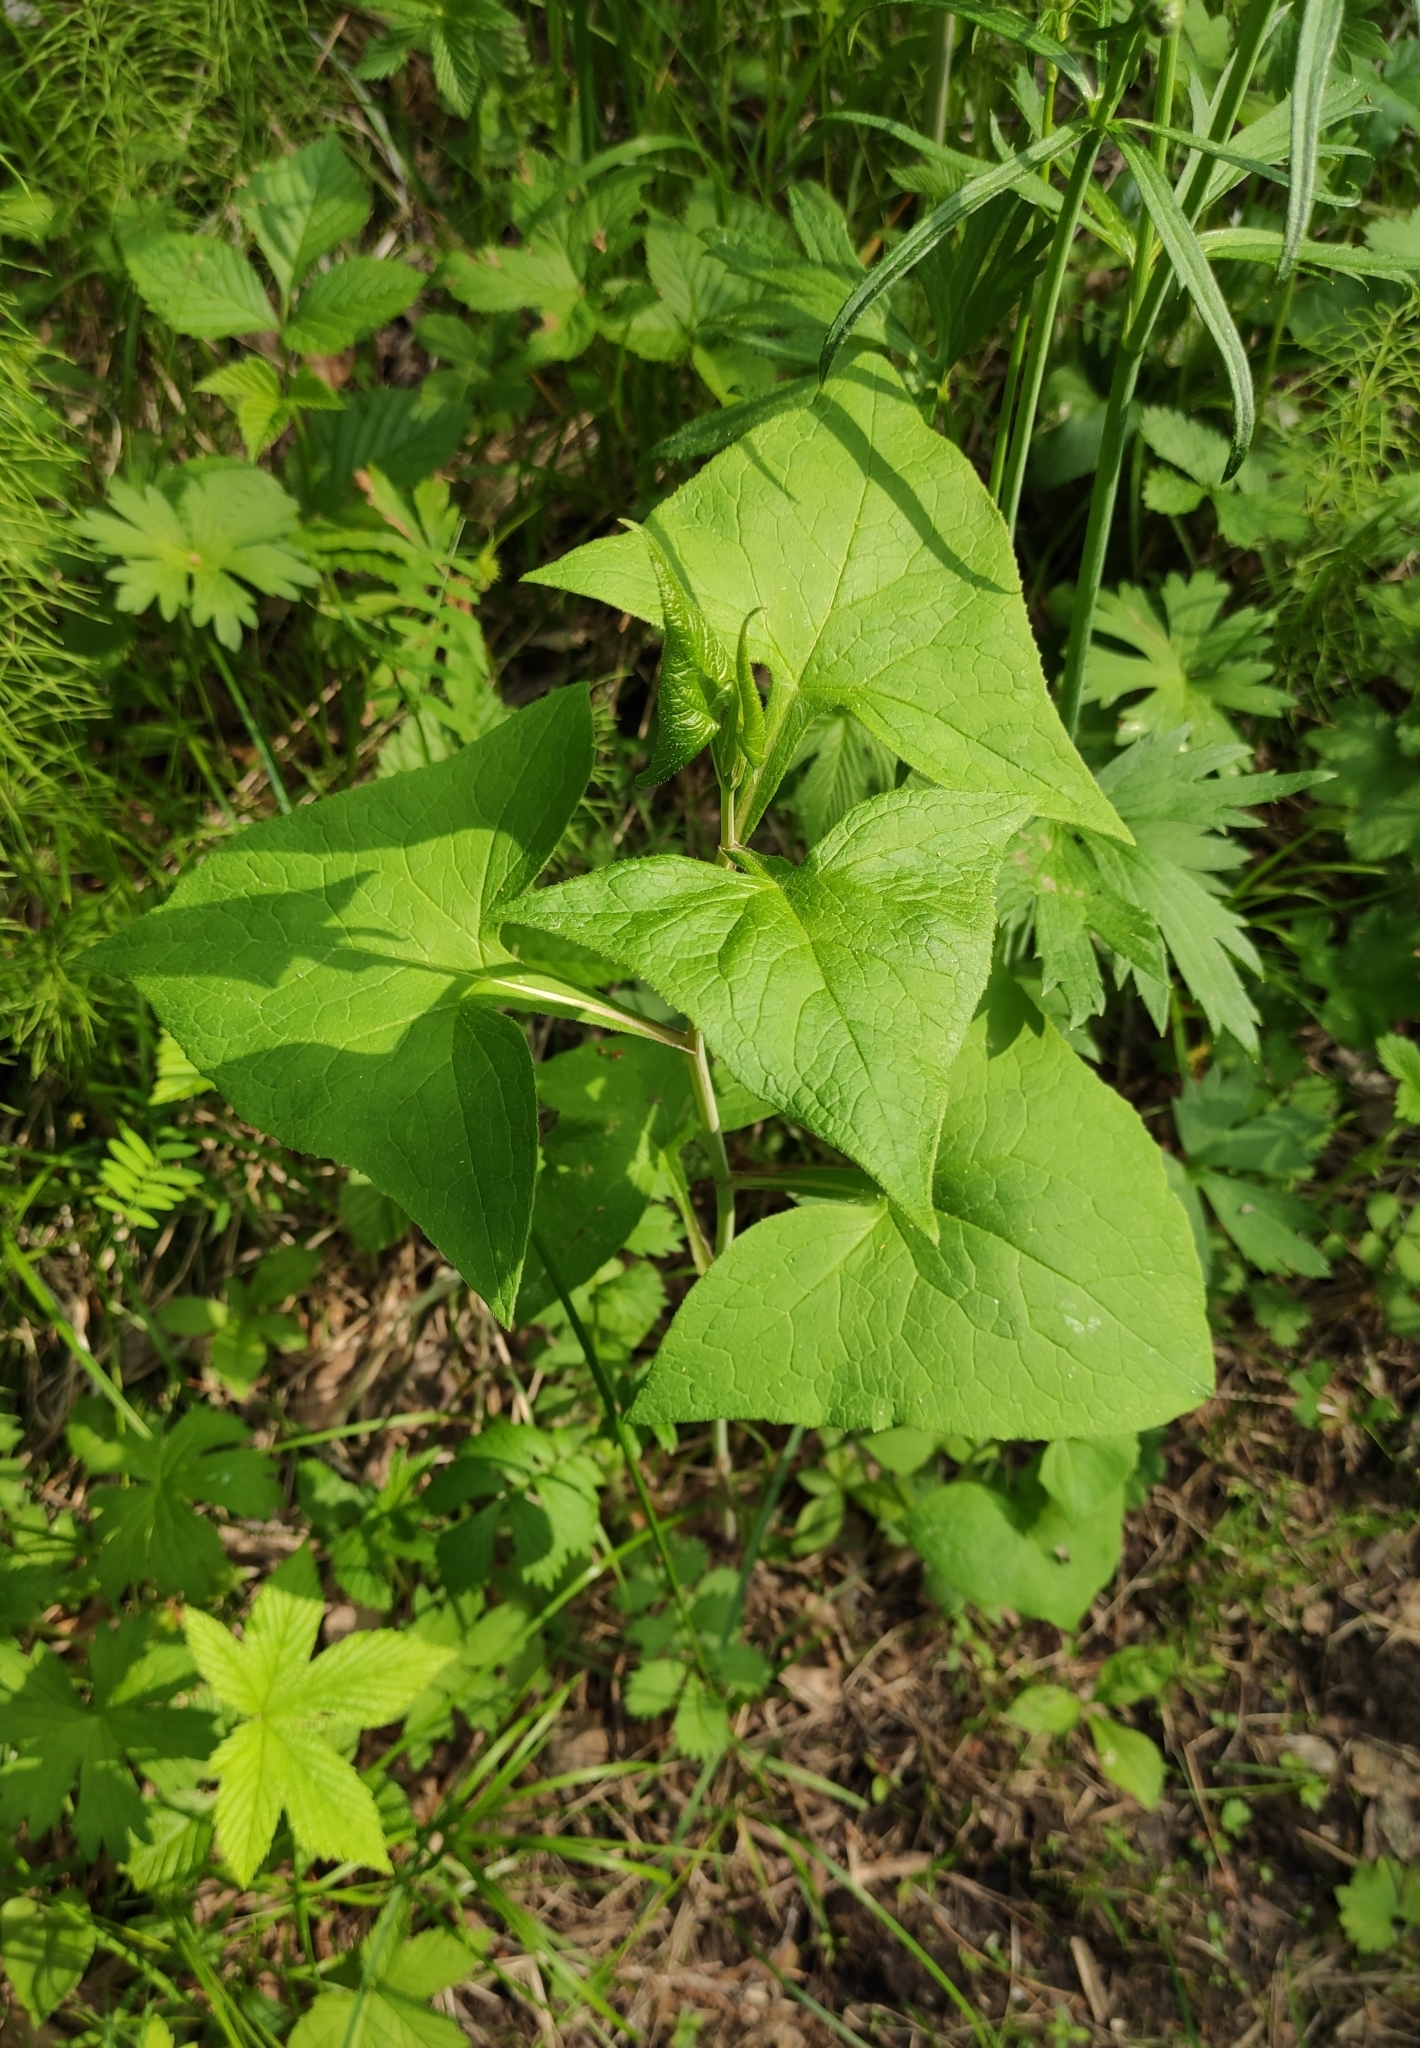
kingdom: Plantae
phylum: Tracheophyta
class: Magnoliopsida
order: Asterales
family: Asteraceae
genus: Parasenecio
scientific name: Parasenecio hastatus
